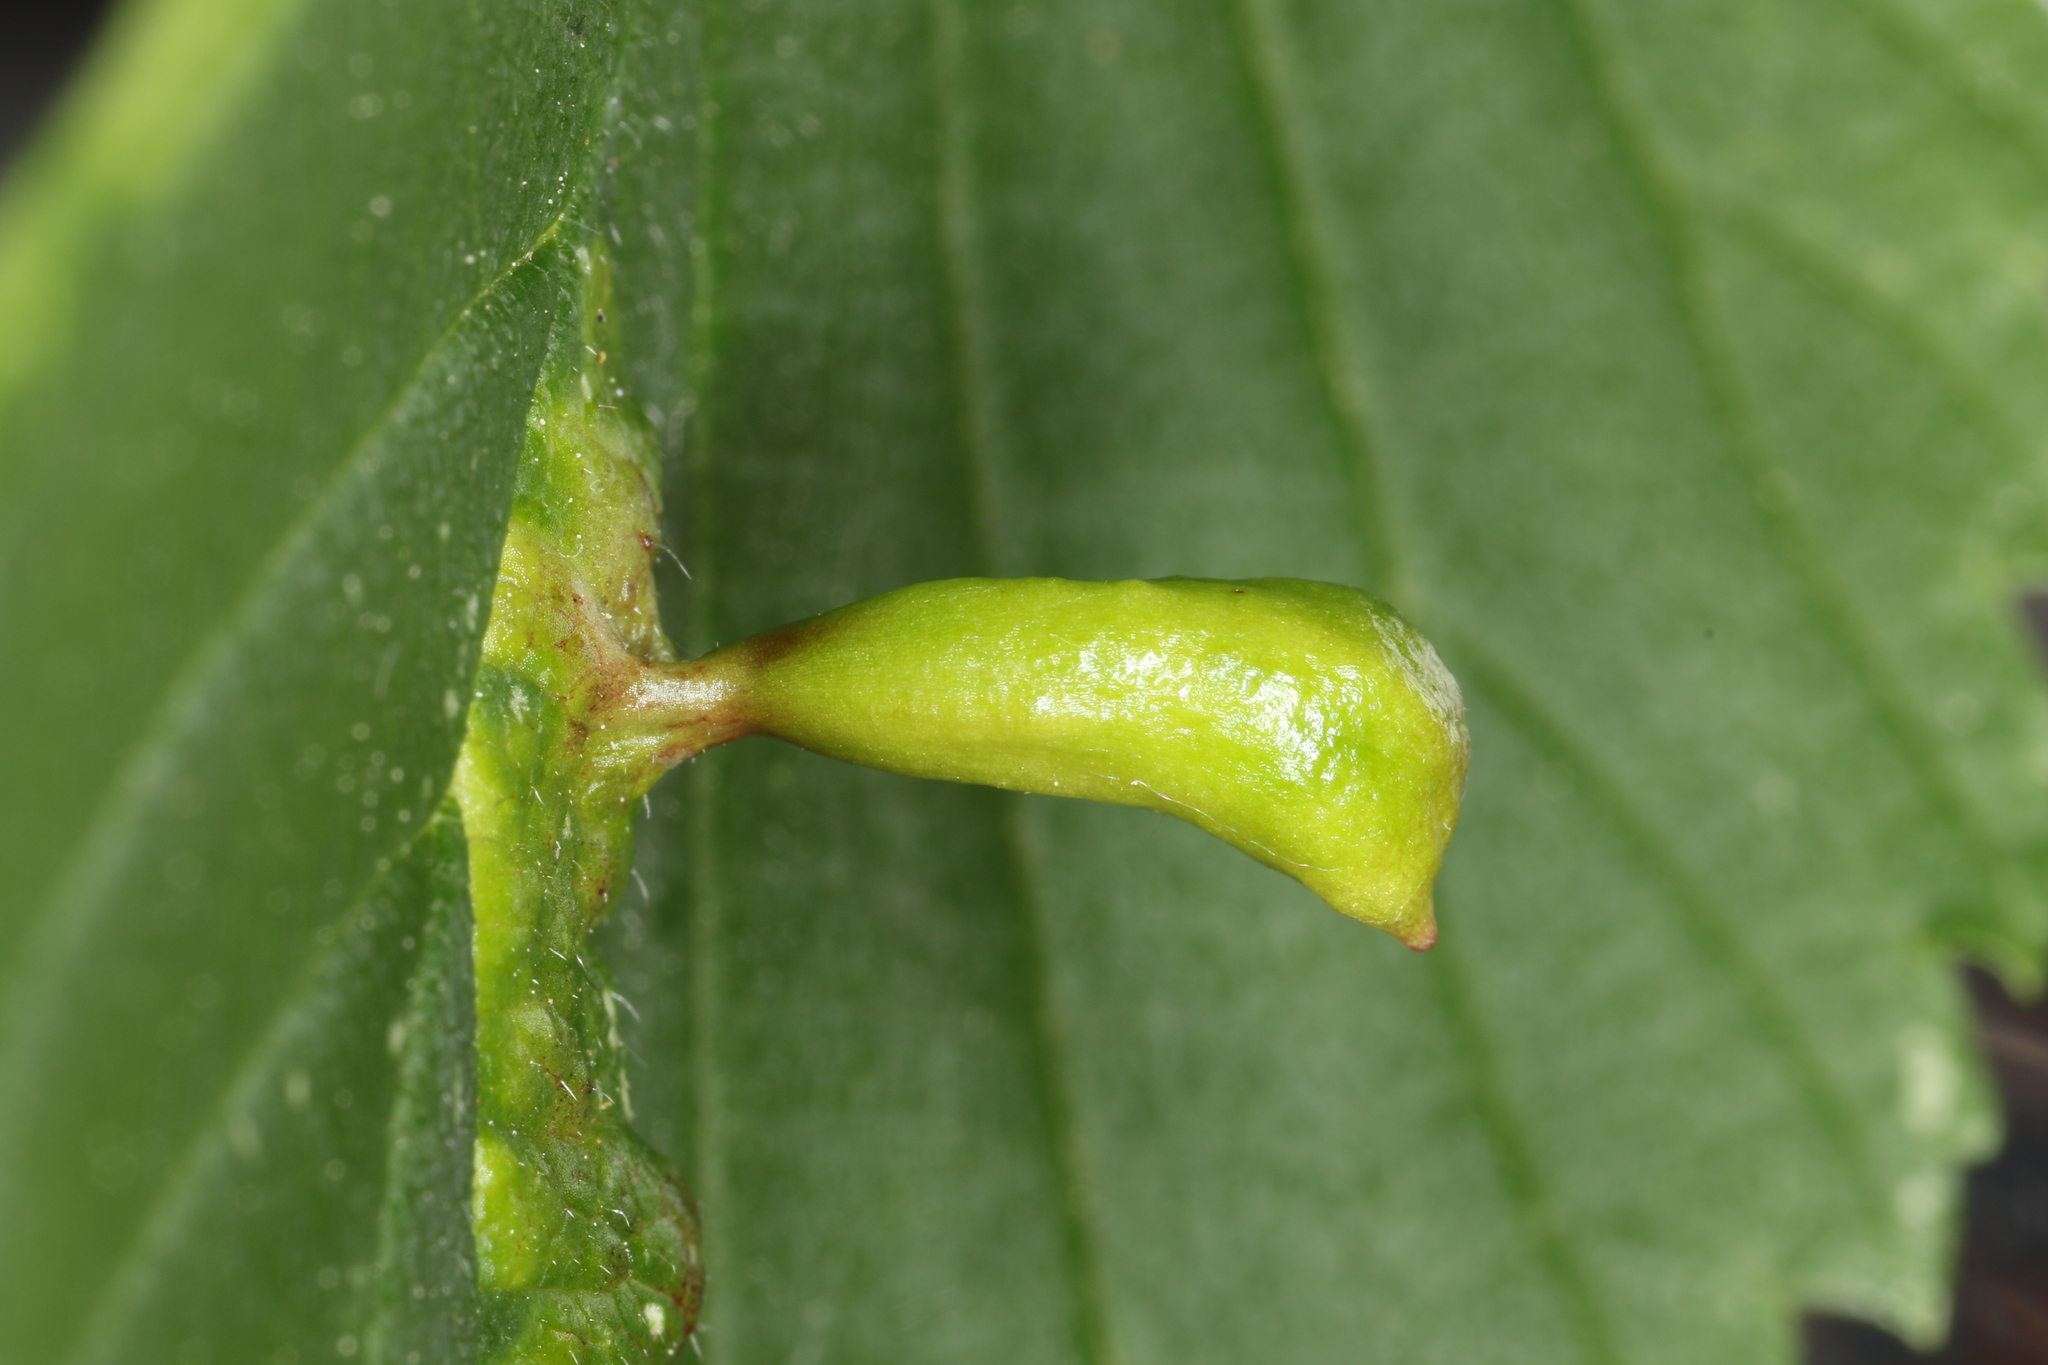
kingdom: Animalia
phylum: Arthropoda
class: Insecta
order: Hemiptera
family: Aphididae
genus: Tetraneura
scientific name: Tetraneura ulmi
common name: Aphid
